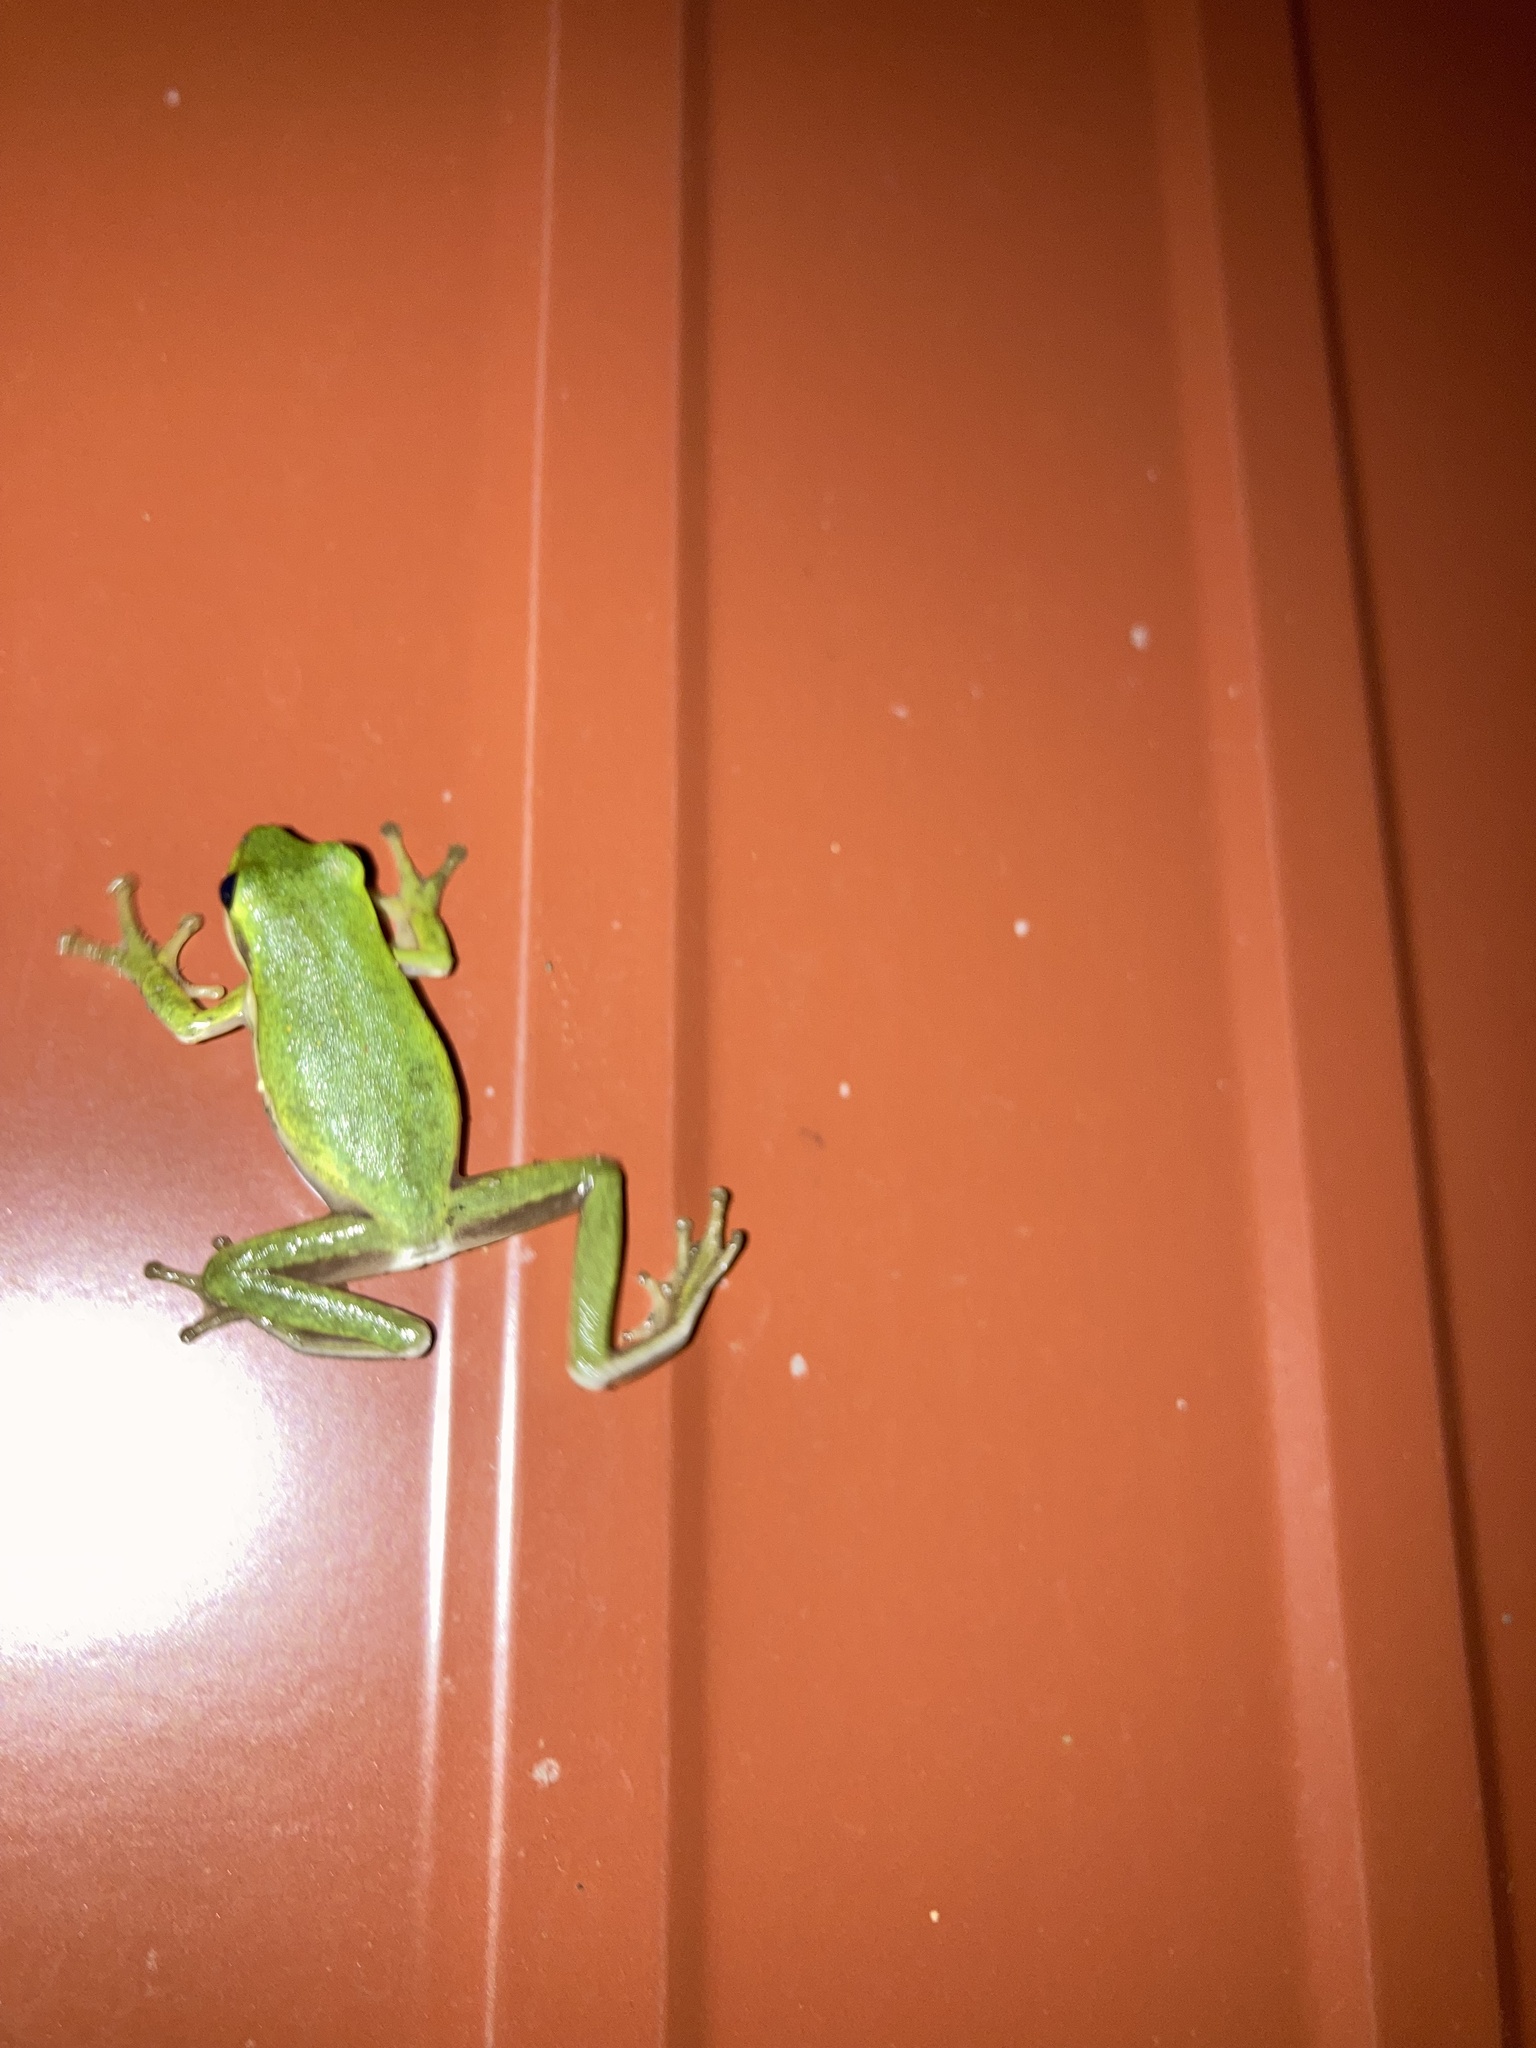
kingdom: Animalia
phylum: Chordata
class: Amphibia
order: Anura
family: Hylidae
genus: Dryophytes
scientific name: Dryophytes cinereus
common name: Green treefrog
